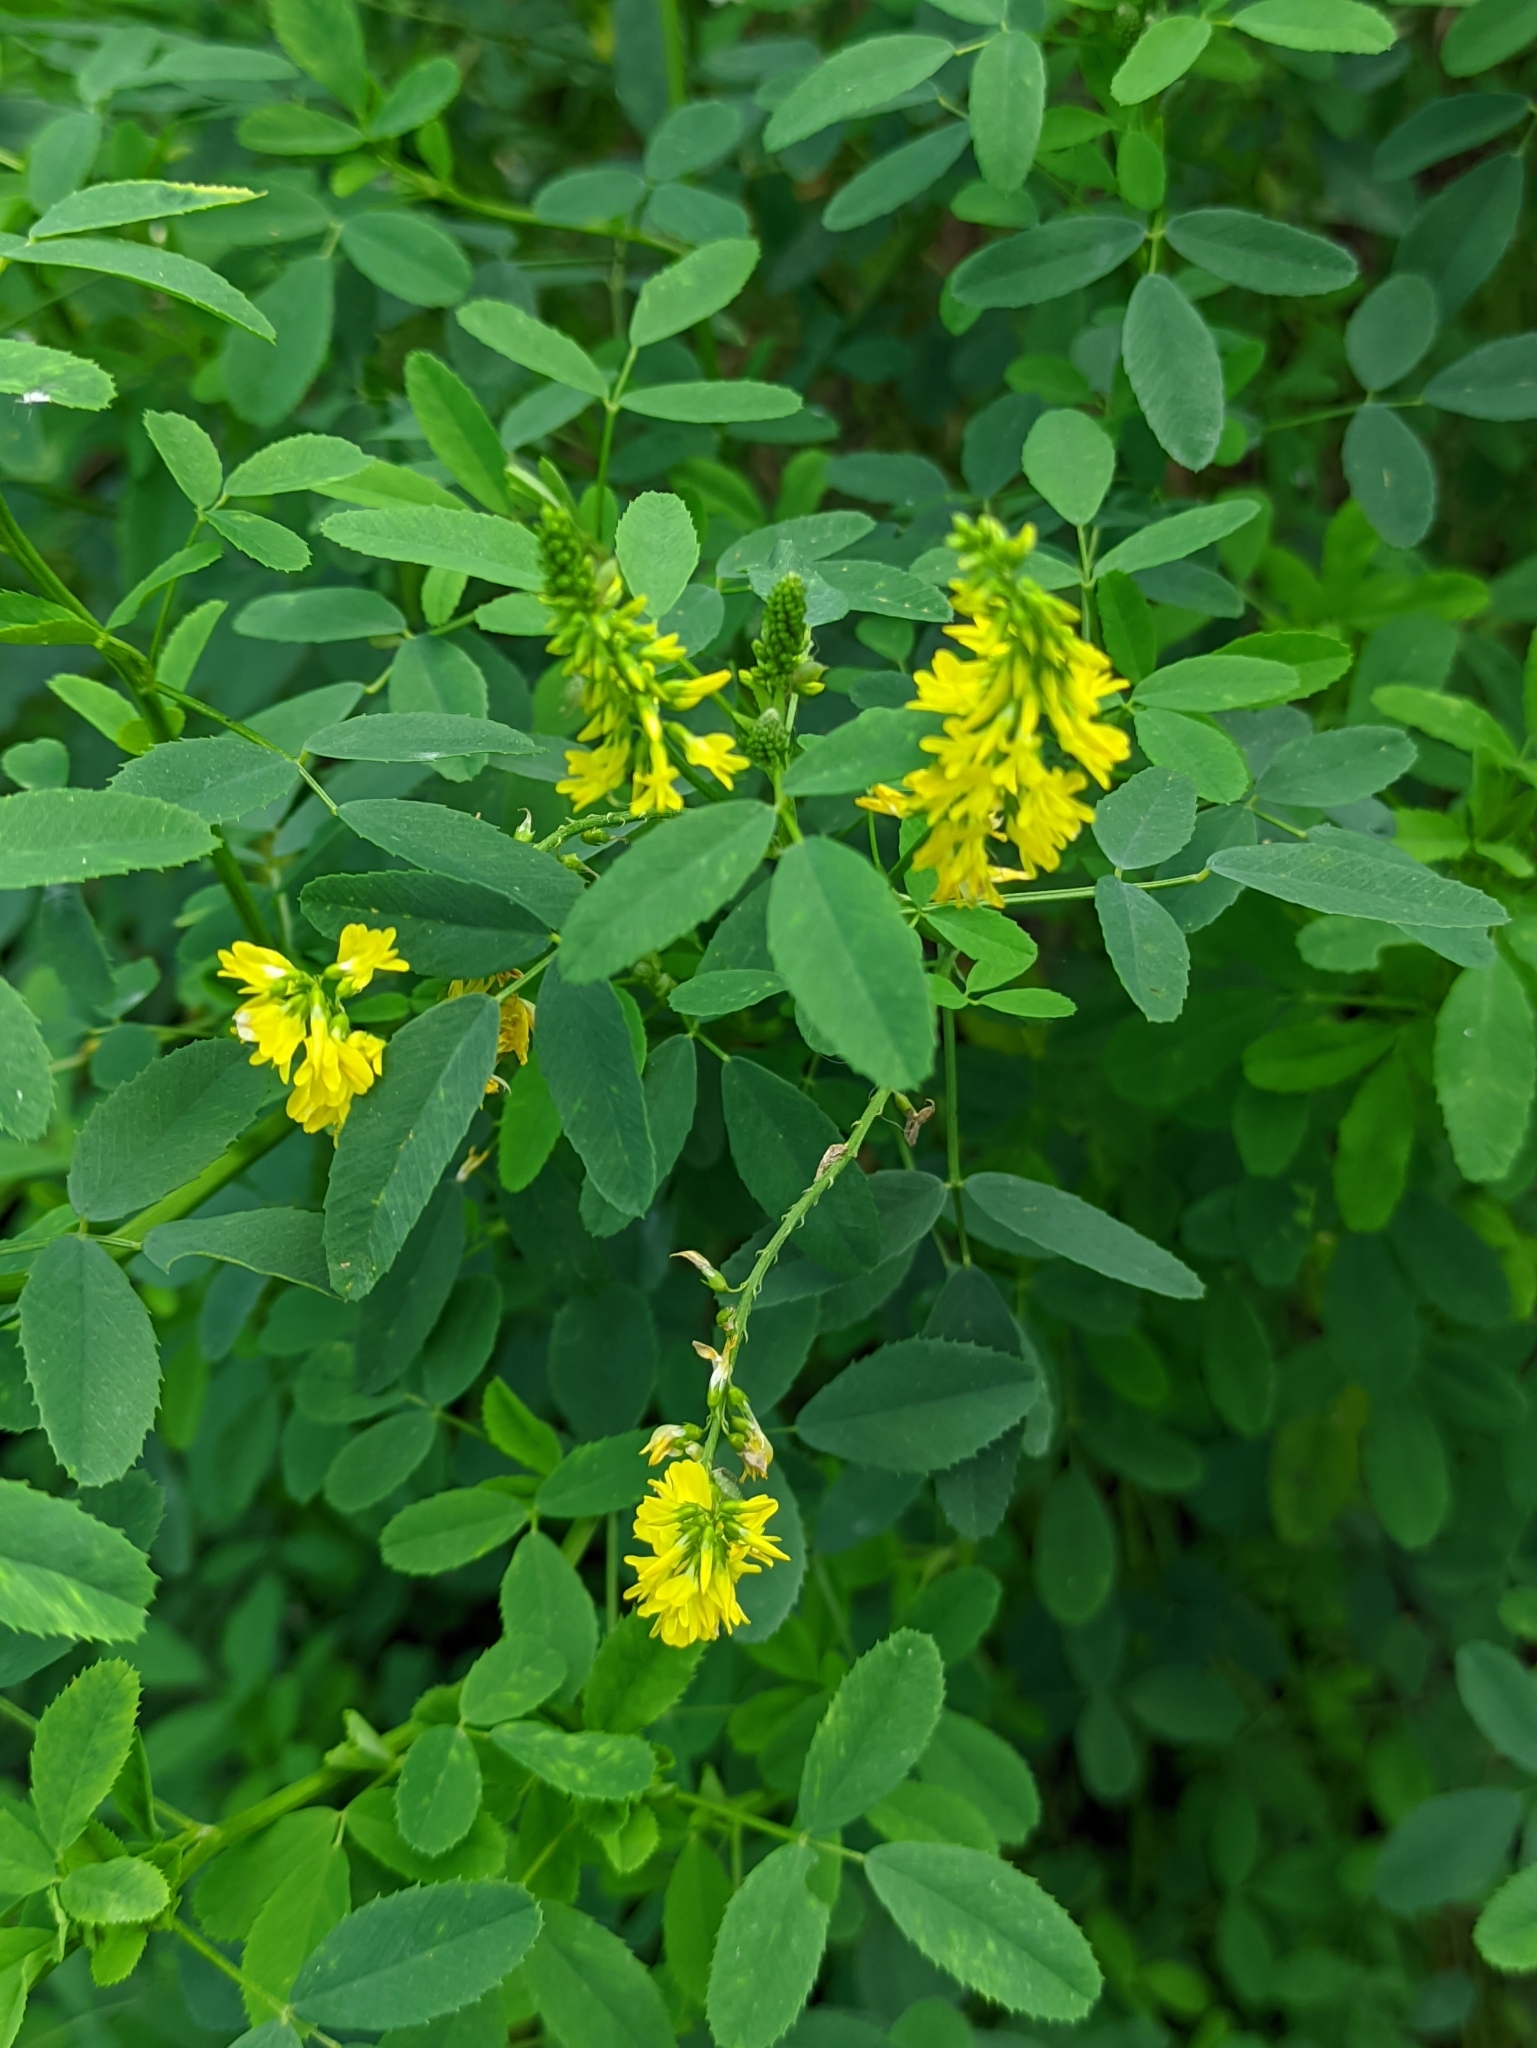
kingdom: Plantae
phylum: Tracheophyta
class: Magnoliopsida
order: Fabales
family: Fabaceae
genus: Melilotus
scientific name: Melilotus officinalis
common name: Sweetclover
